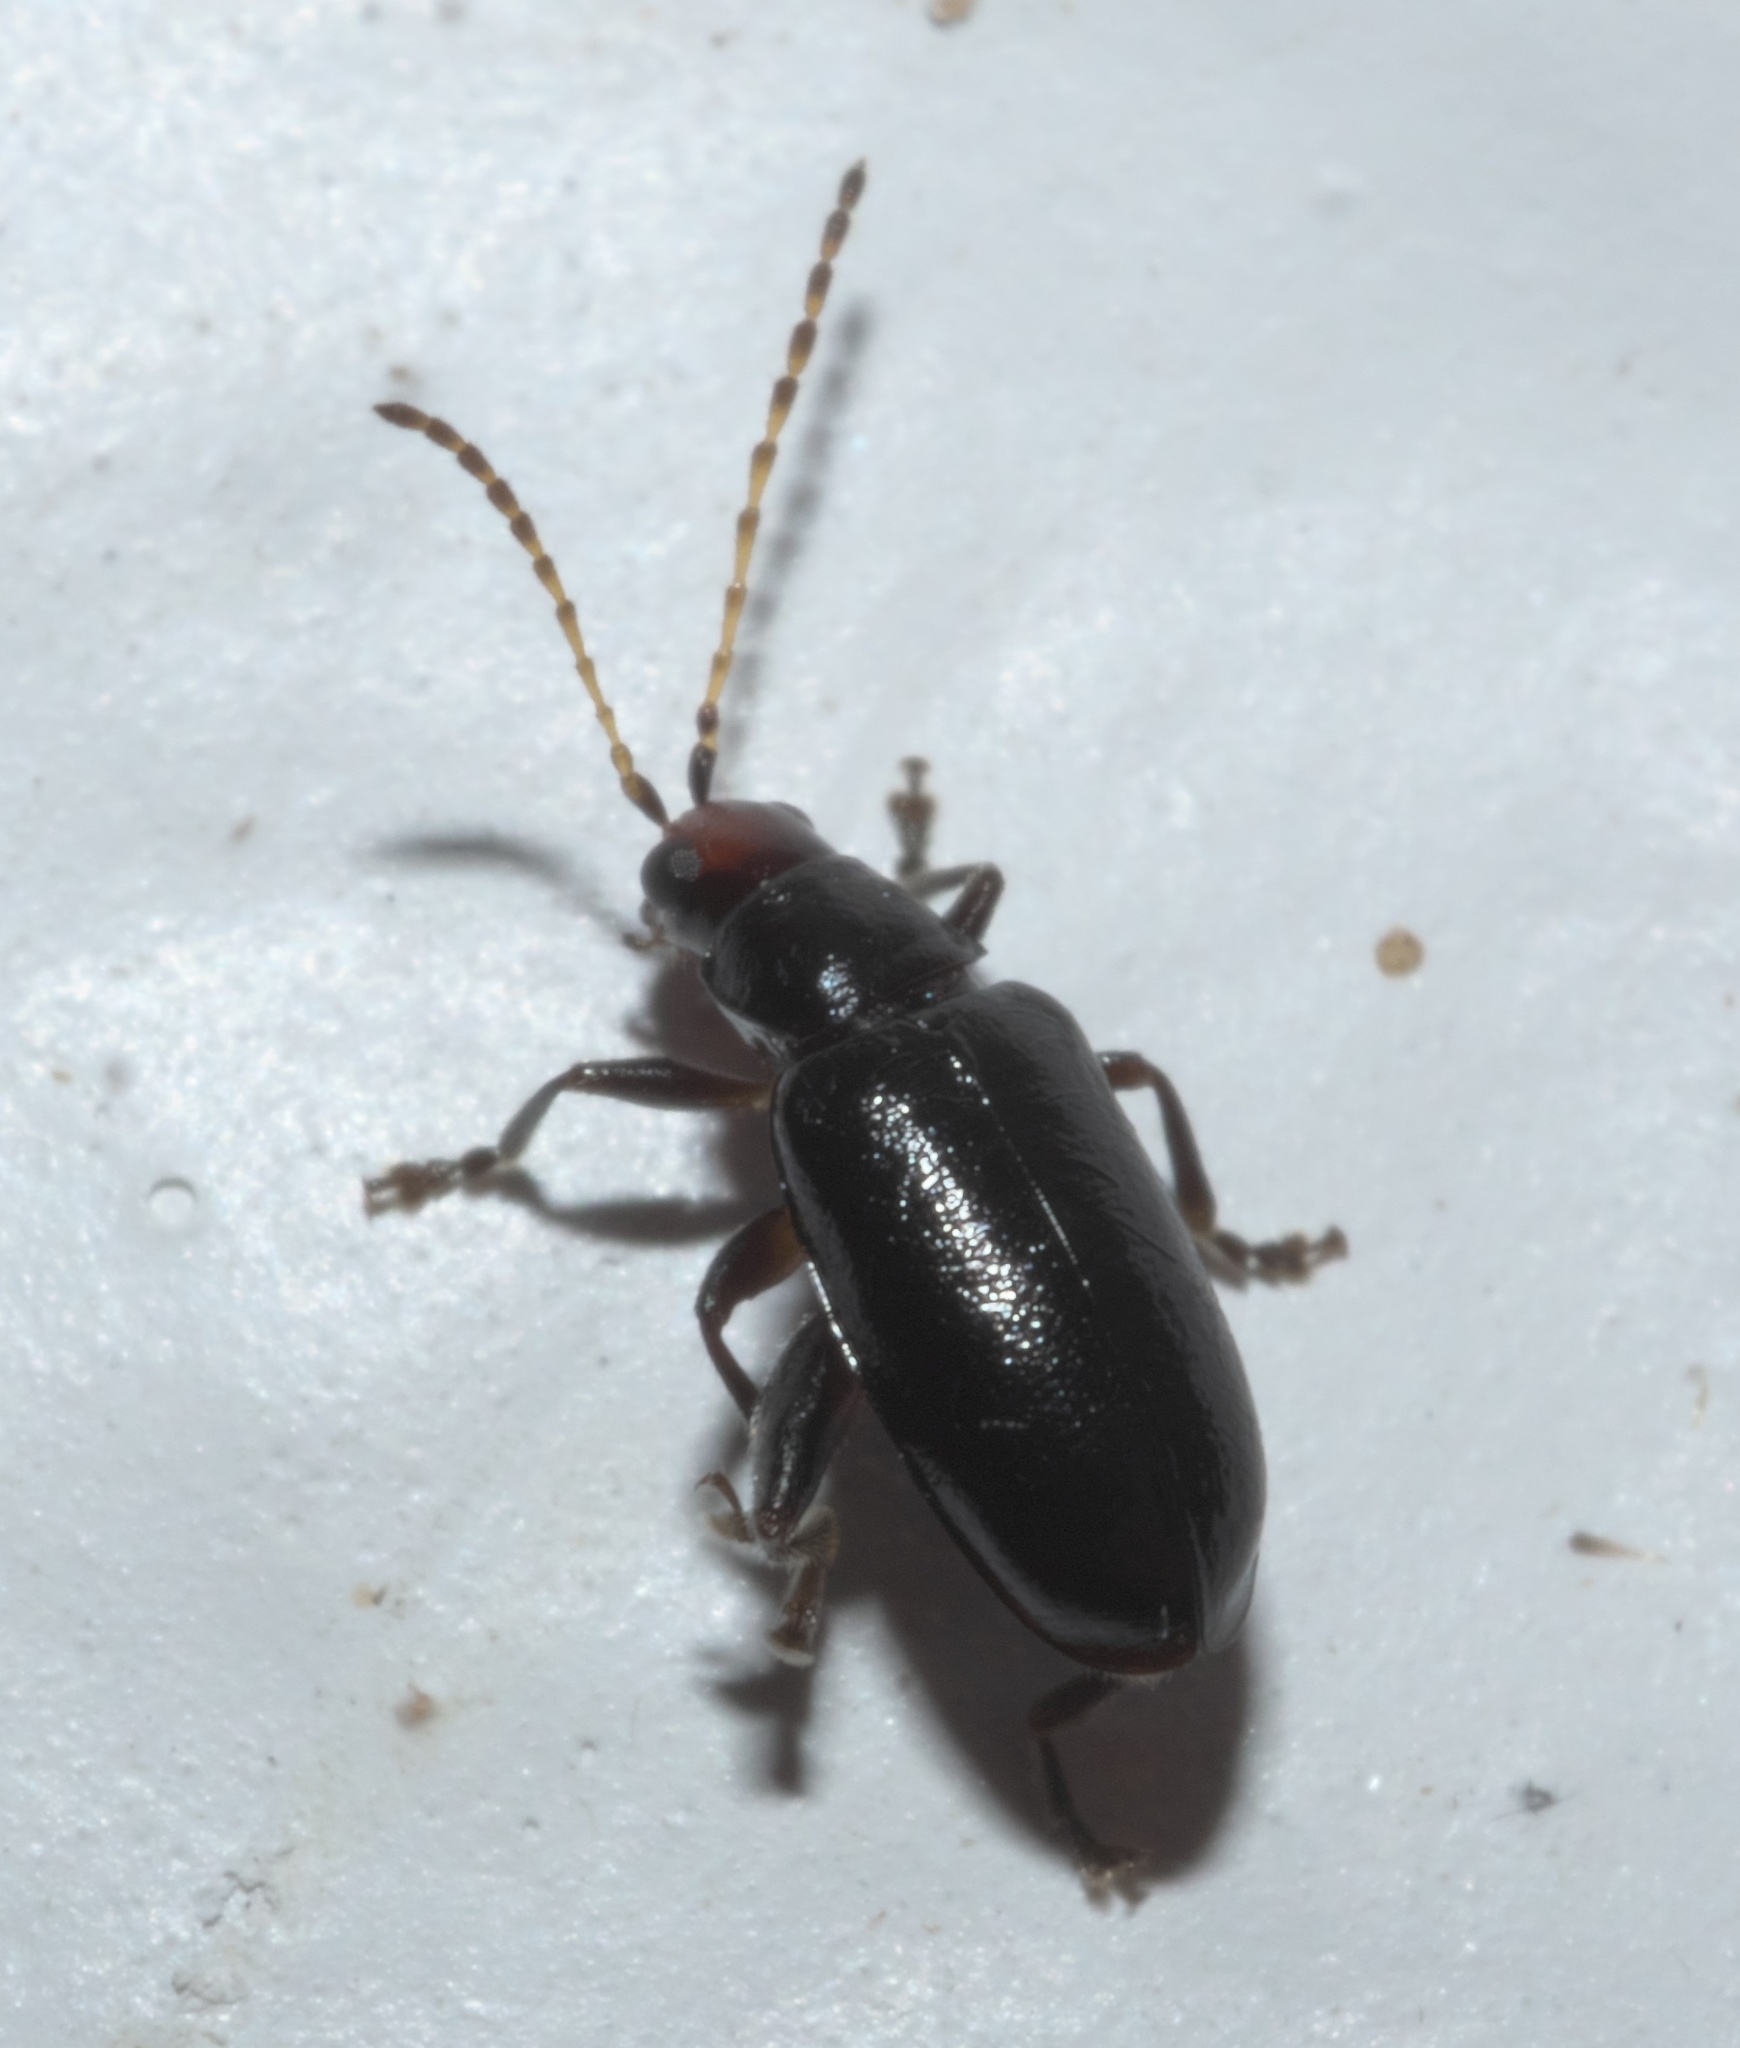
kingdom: Animalia
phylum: Arthropoda
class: Insecta
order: Coleoptera
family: Chrysomelidae
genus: Systena
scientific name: Systena frontalis
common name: Red-headed flea beetle
